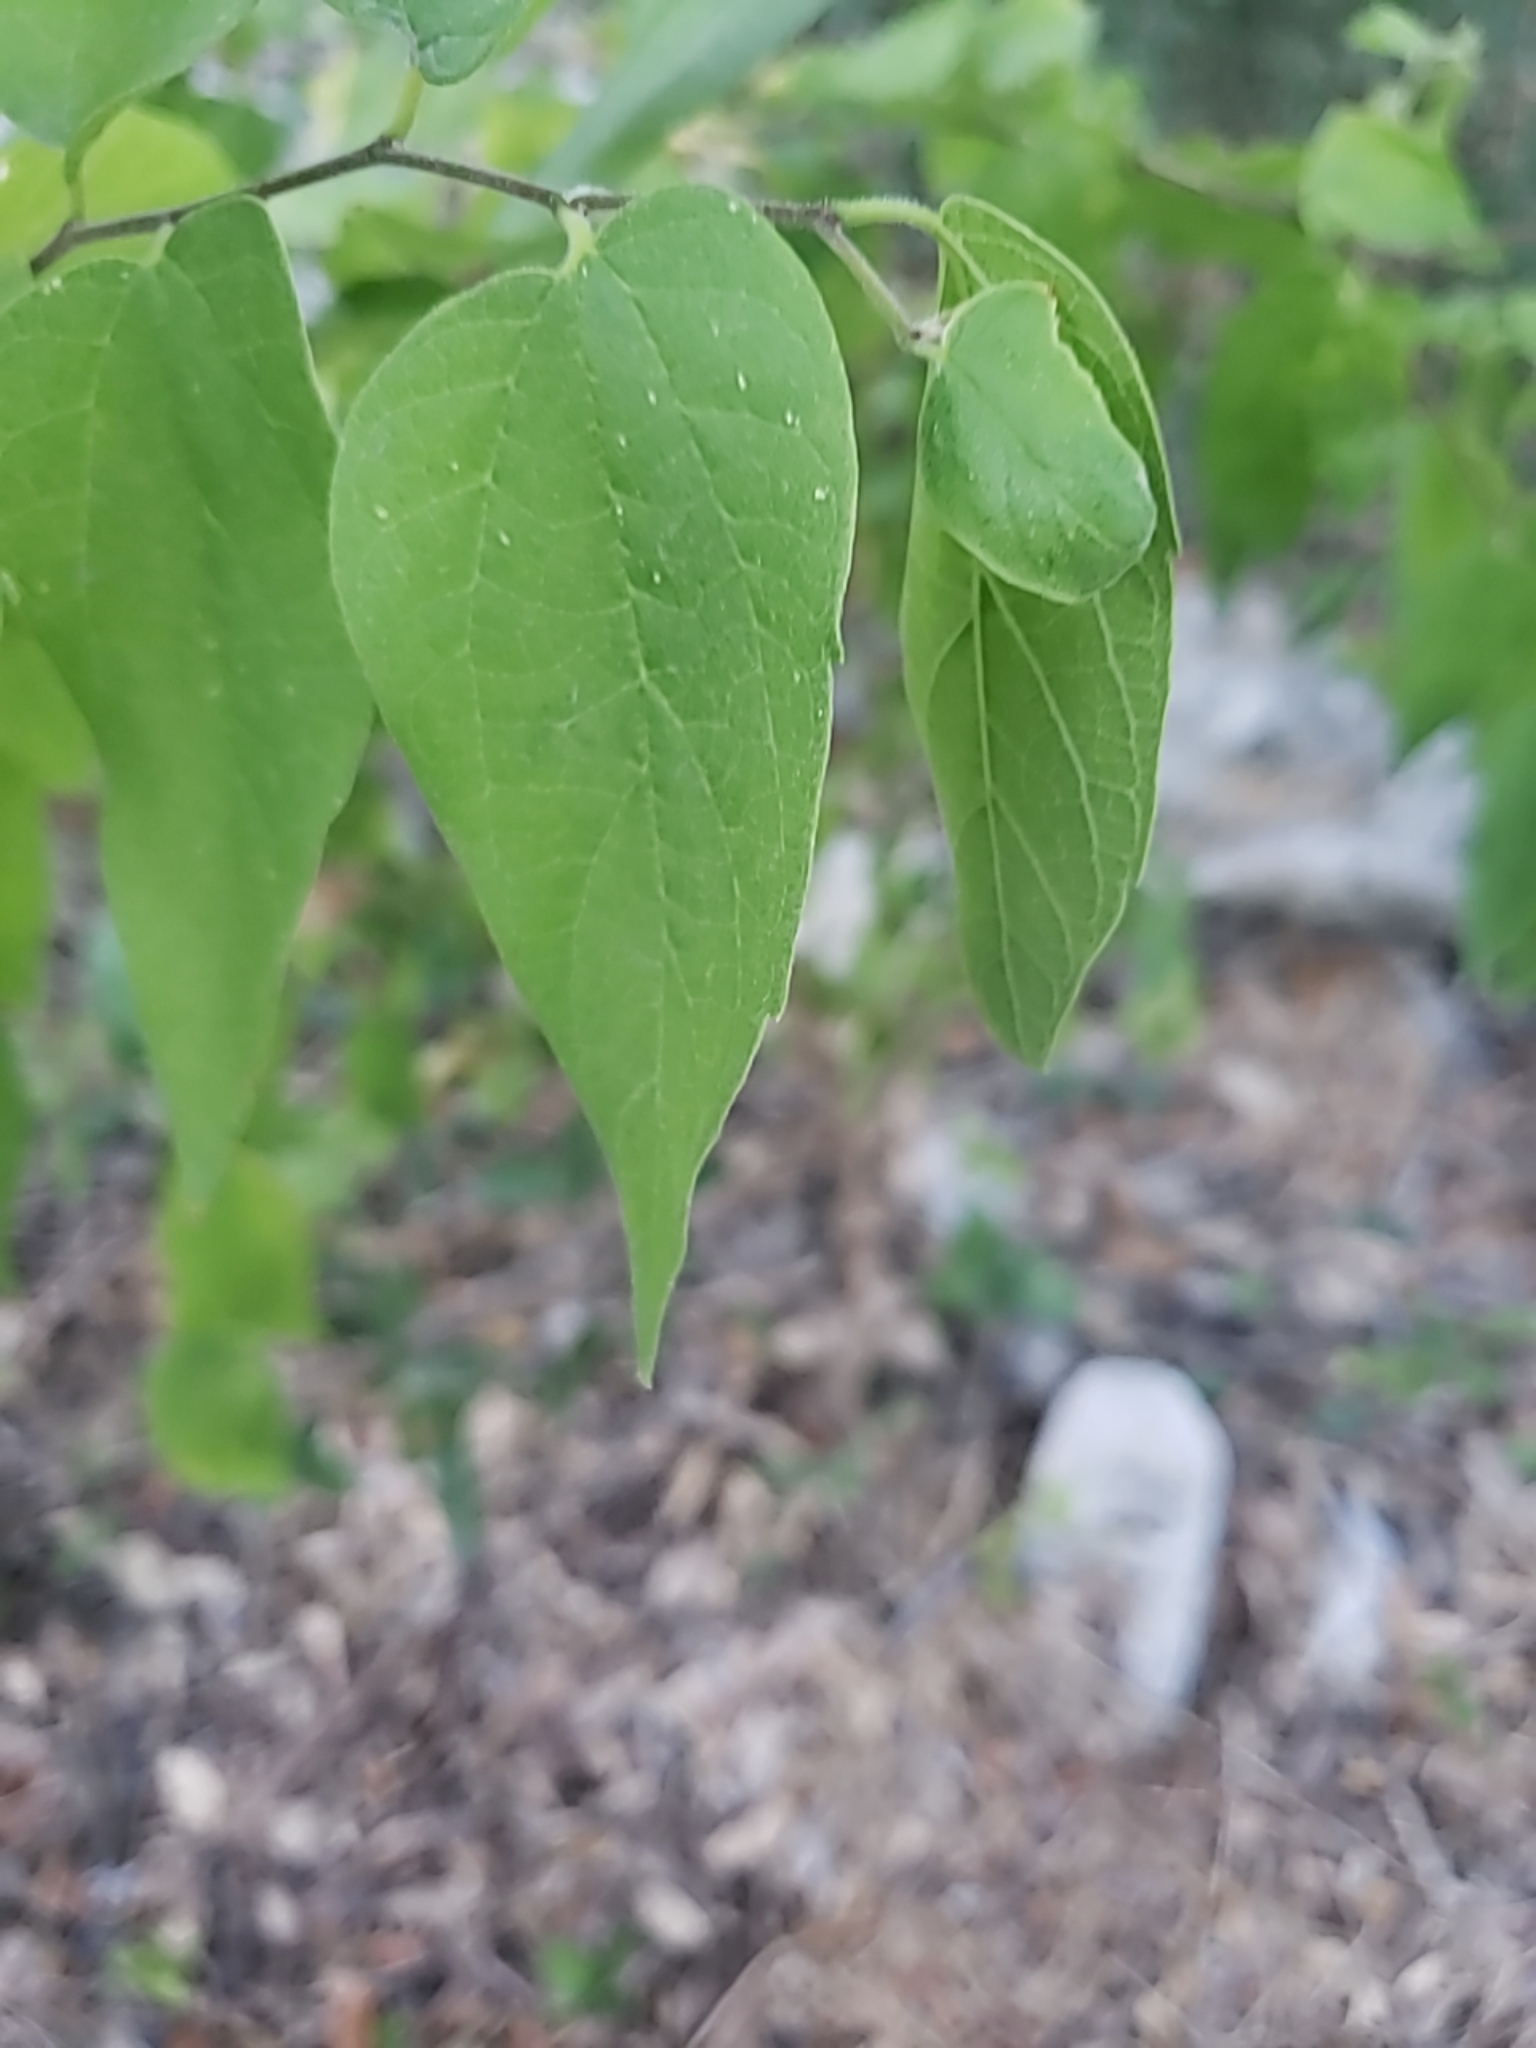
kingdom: Plantae
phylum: Tracheophyta
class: Magnoliopsida
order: Rosales
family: Cannabaceae
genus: Celtis
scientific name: Celtis laevigata
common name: Sugarberry
